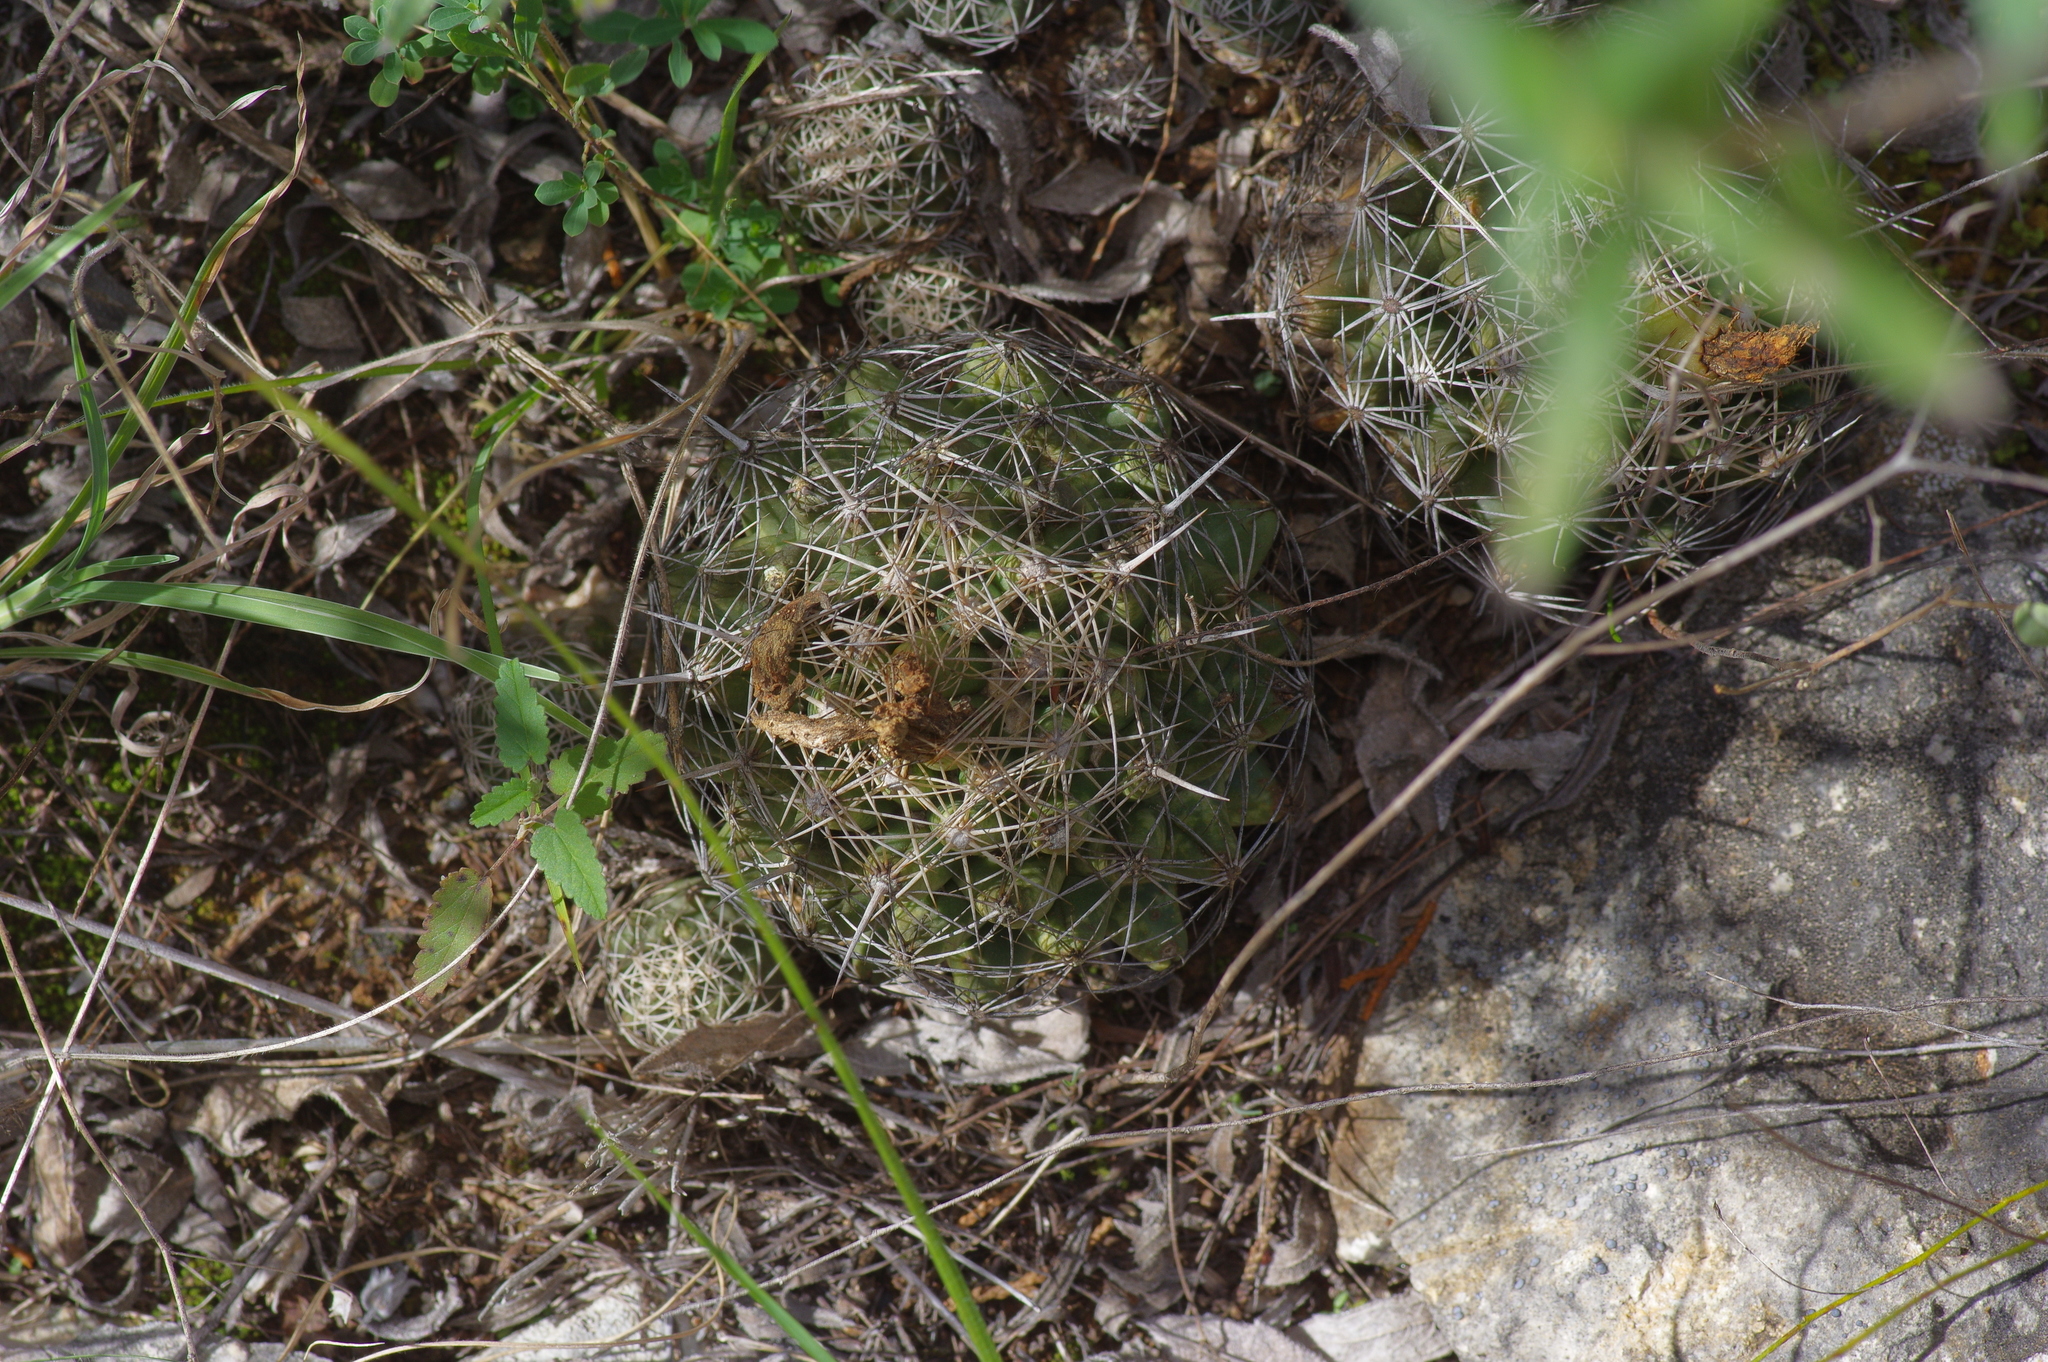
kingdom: Plantae
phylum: Tracheophyta
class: Magnoliopsida
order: Caryophyllales
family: Cactaceae
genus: Coryphantha
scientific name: Coryphantha sulcata
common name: Finger cactus
